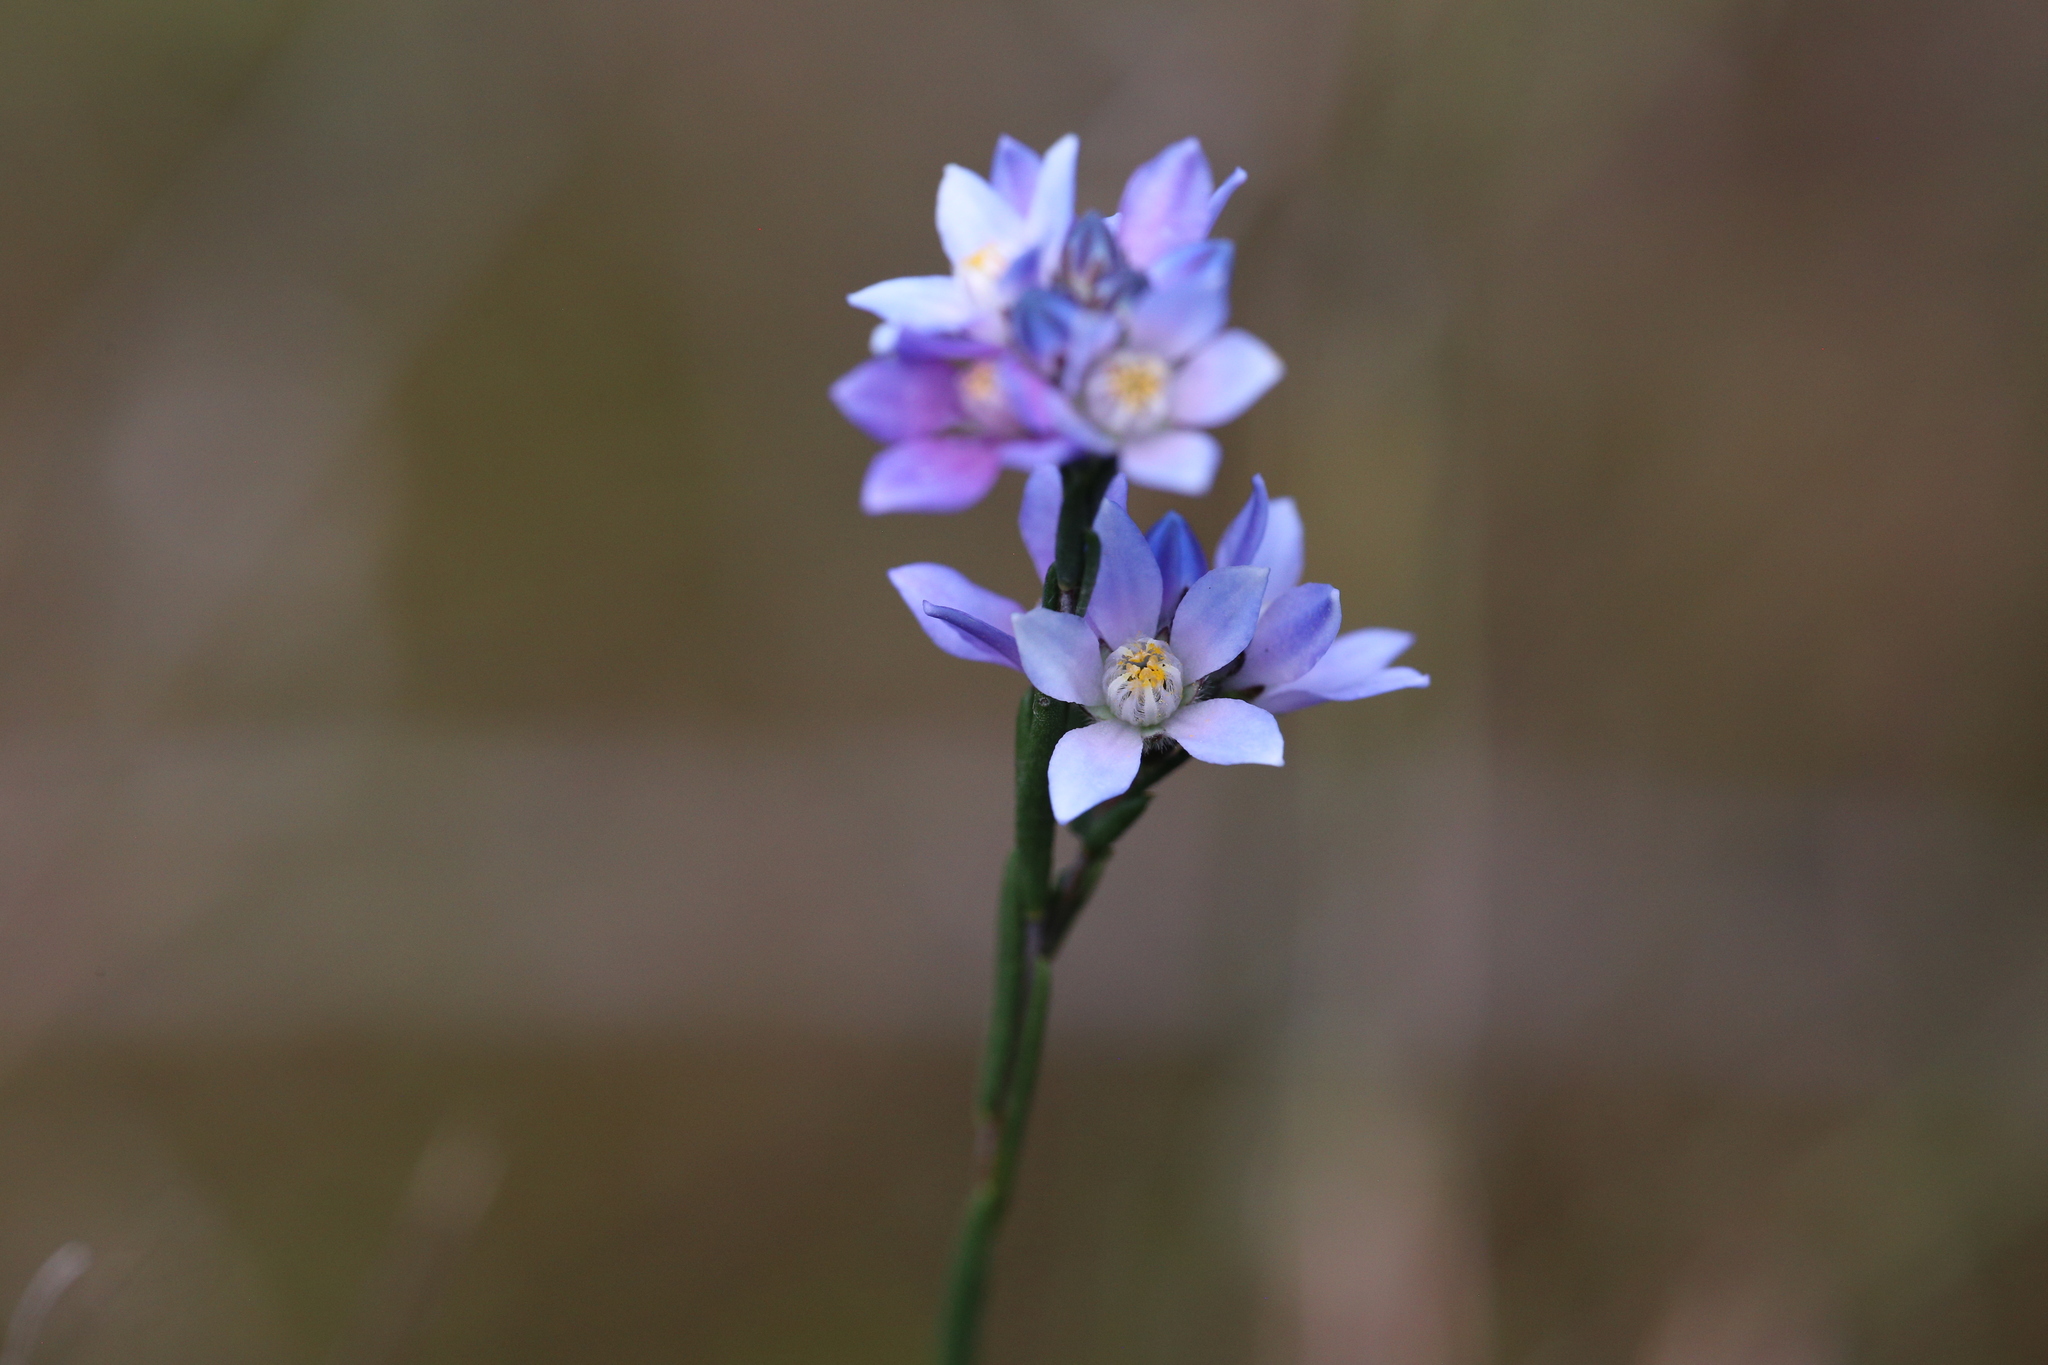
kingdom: Plantae
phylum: Tracheophyta
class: Magnoliopsida
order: Sapindales
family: Rutaceae
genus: Philotheca
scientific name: Philotheca nodiflora
